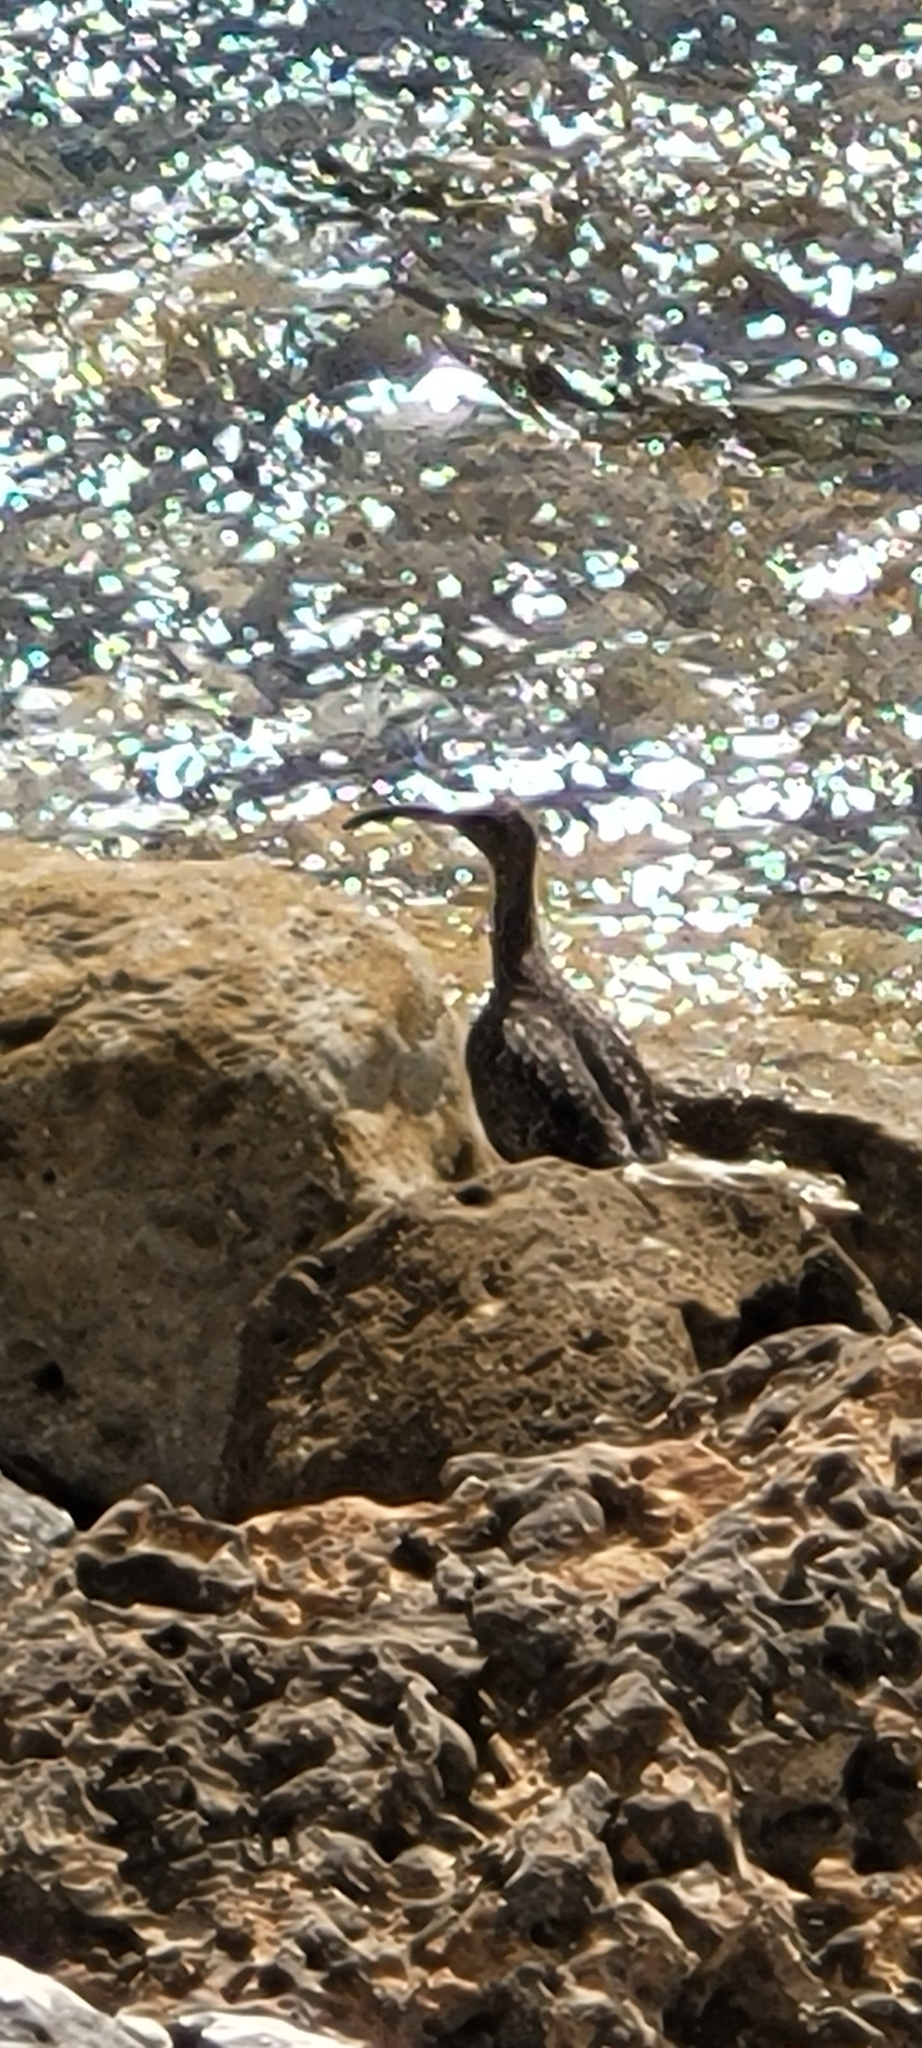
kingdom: Animalia
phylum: Chordata
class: Aves
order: Charadriiformes
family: Scolopacidae
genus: Numenius
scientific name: Numenius phaeopus
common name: Whimbrel
